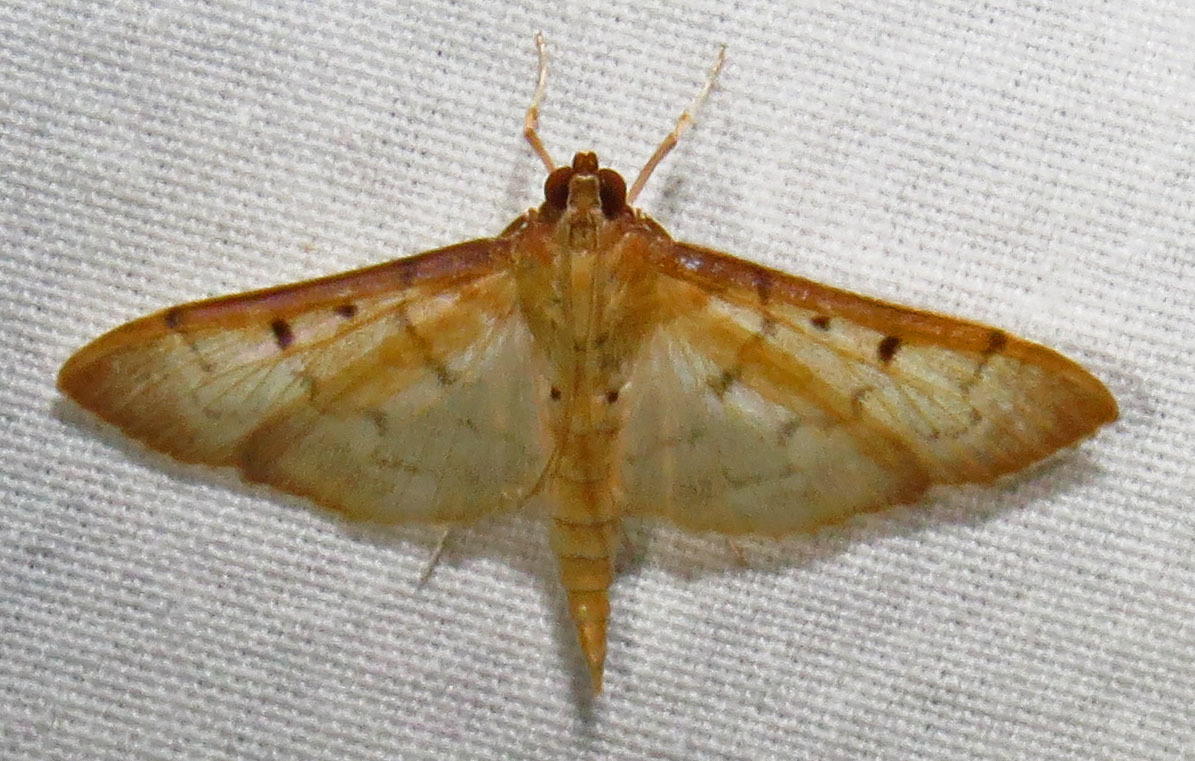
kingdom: Animalia
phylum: Arthropoda
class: Insecta
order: Lepidoptera
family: Crambidae
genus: Herpetogramma
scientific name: Herpetogramma bipunctalis
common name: Southern beet webworm
